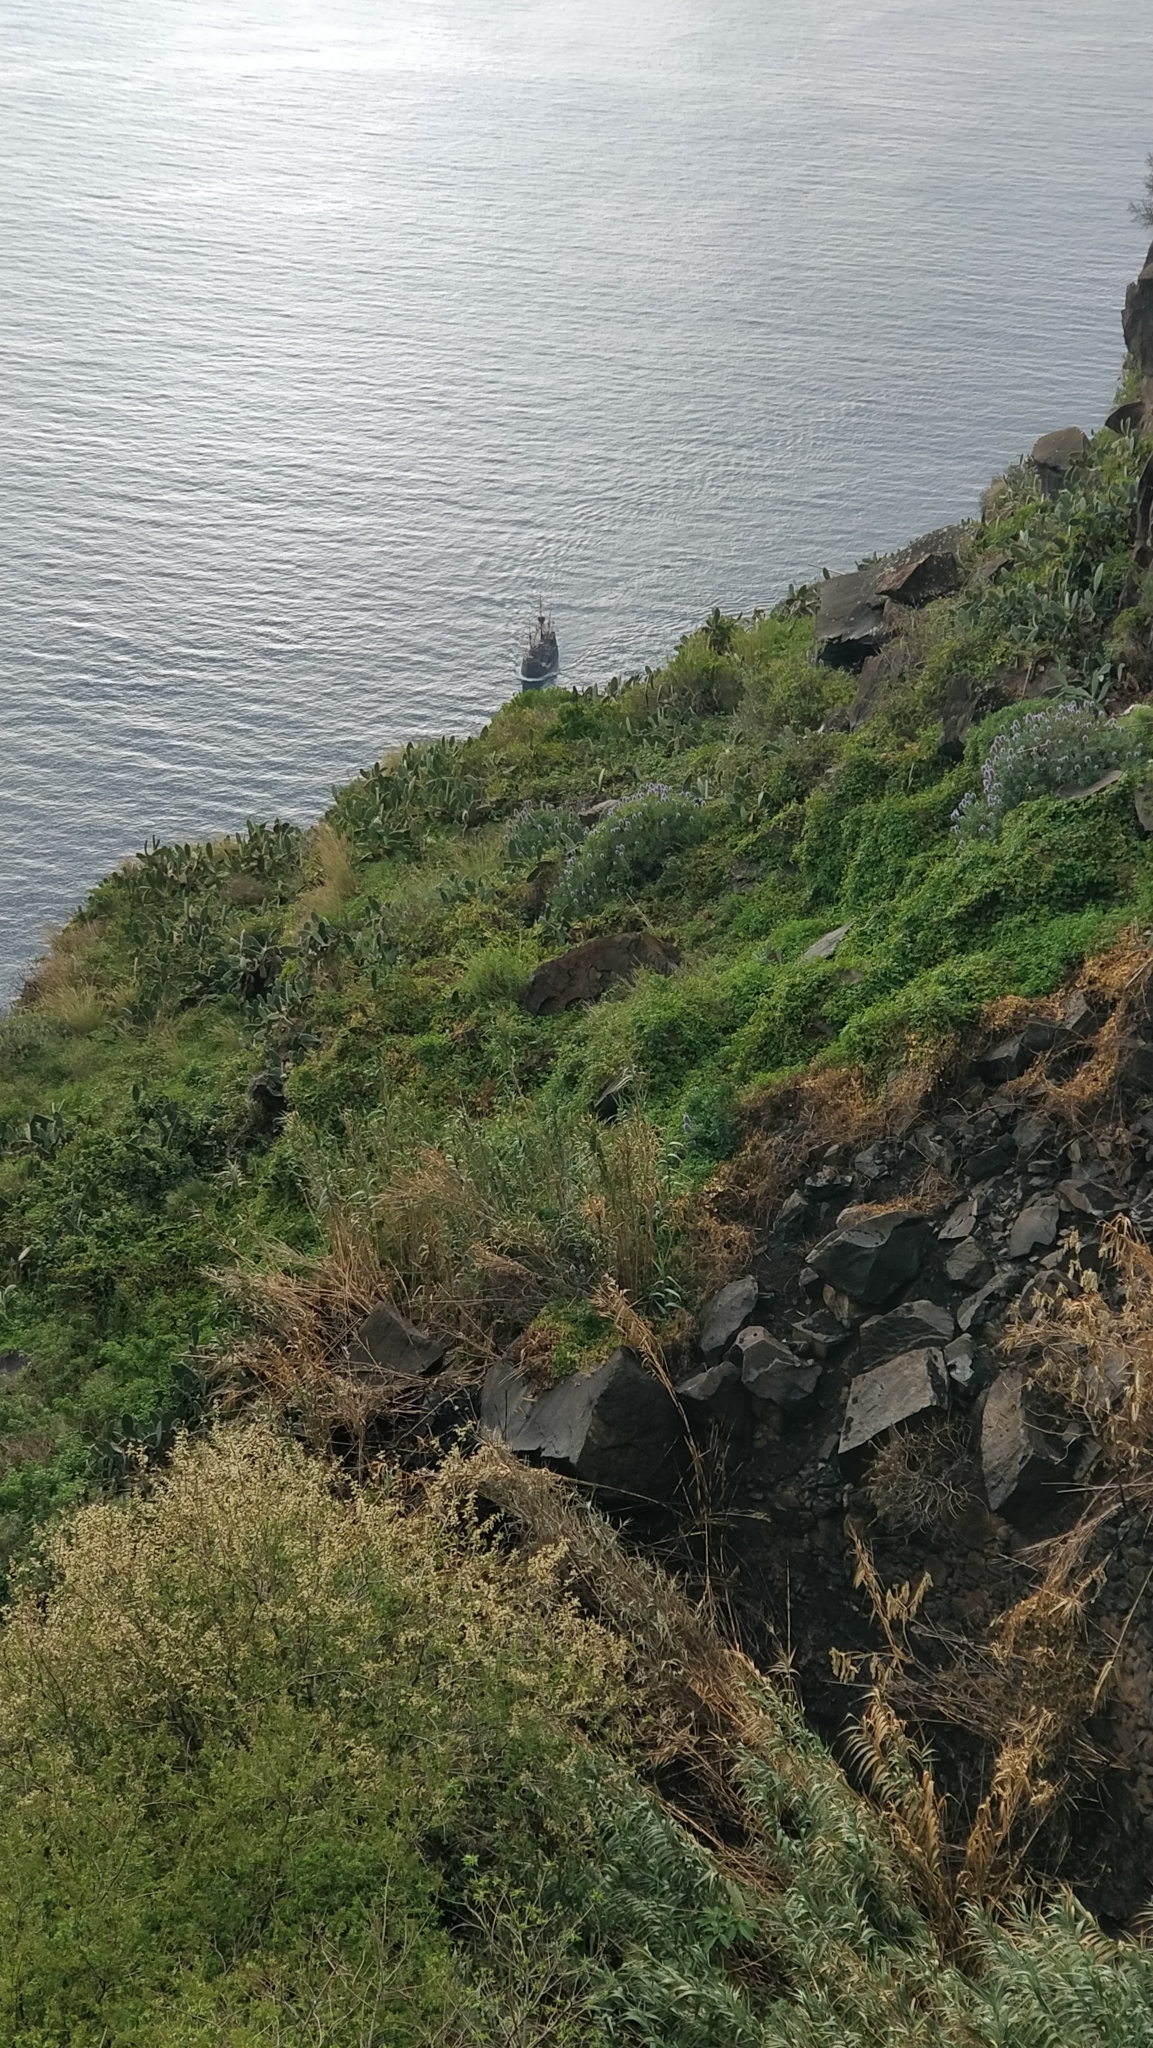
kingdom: Plantae
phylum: Tracheophyta
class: Magnoliopsida
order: Boraginales
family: Boraginaceae
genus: Echium
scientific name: Echium nervosum
